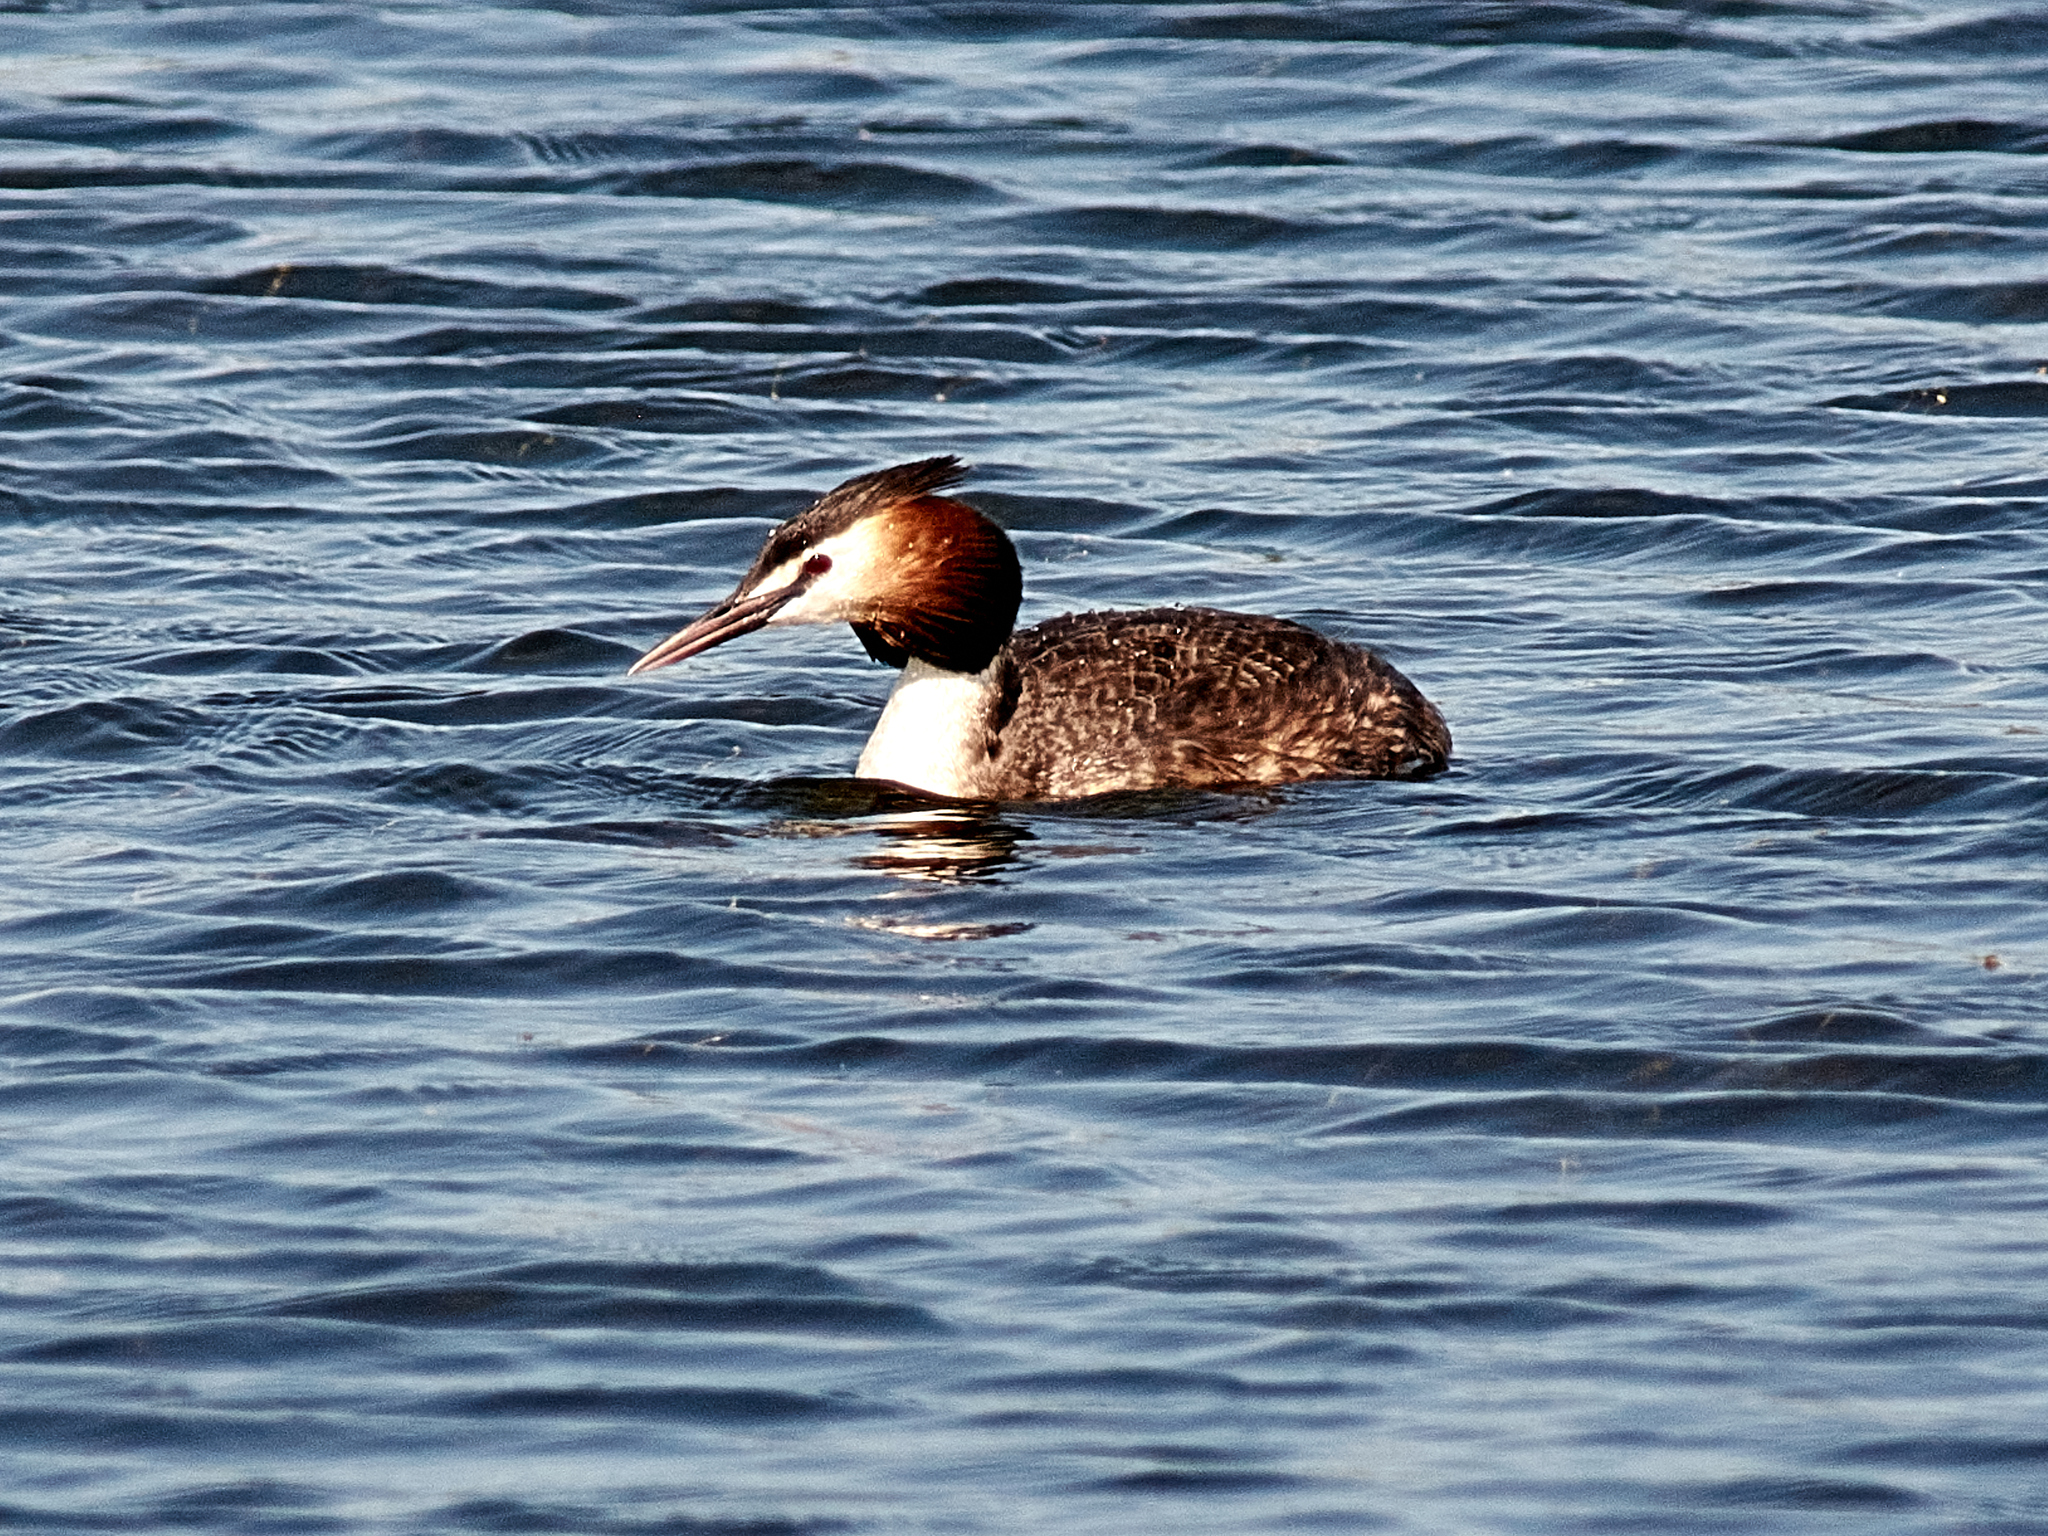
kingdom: Animalia
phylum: Chordata
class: Aves
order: Podicipediformes
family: Podicipedidae
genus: Podiceps
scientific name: Podiceps cristatus
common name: Great crested grebe
